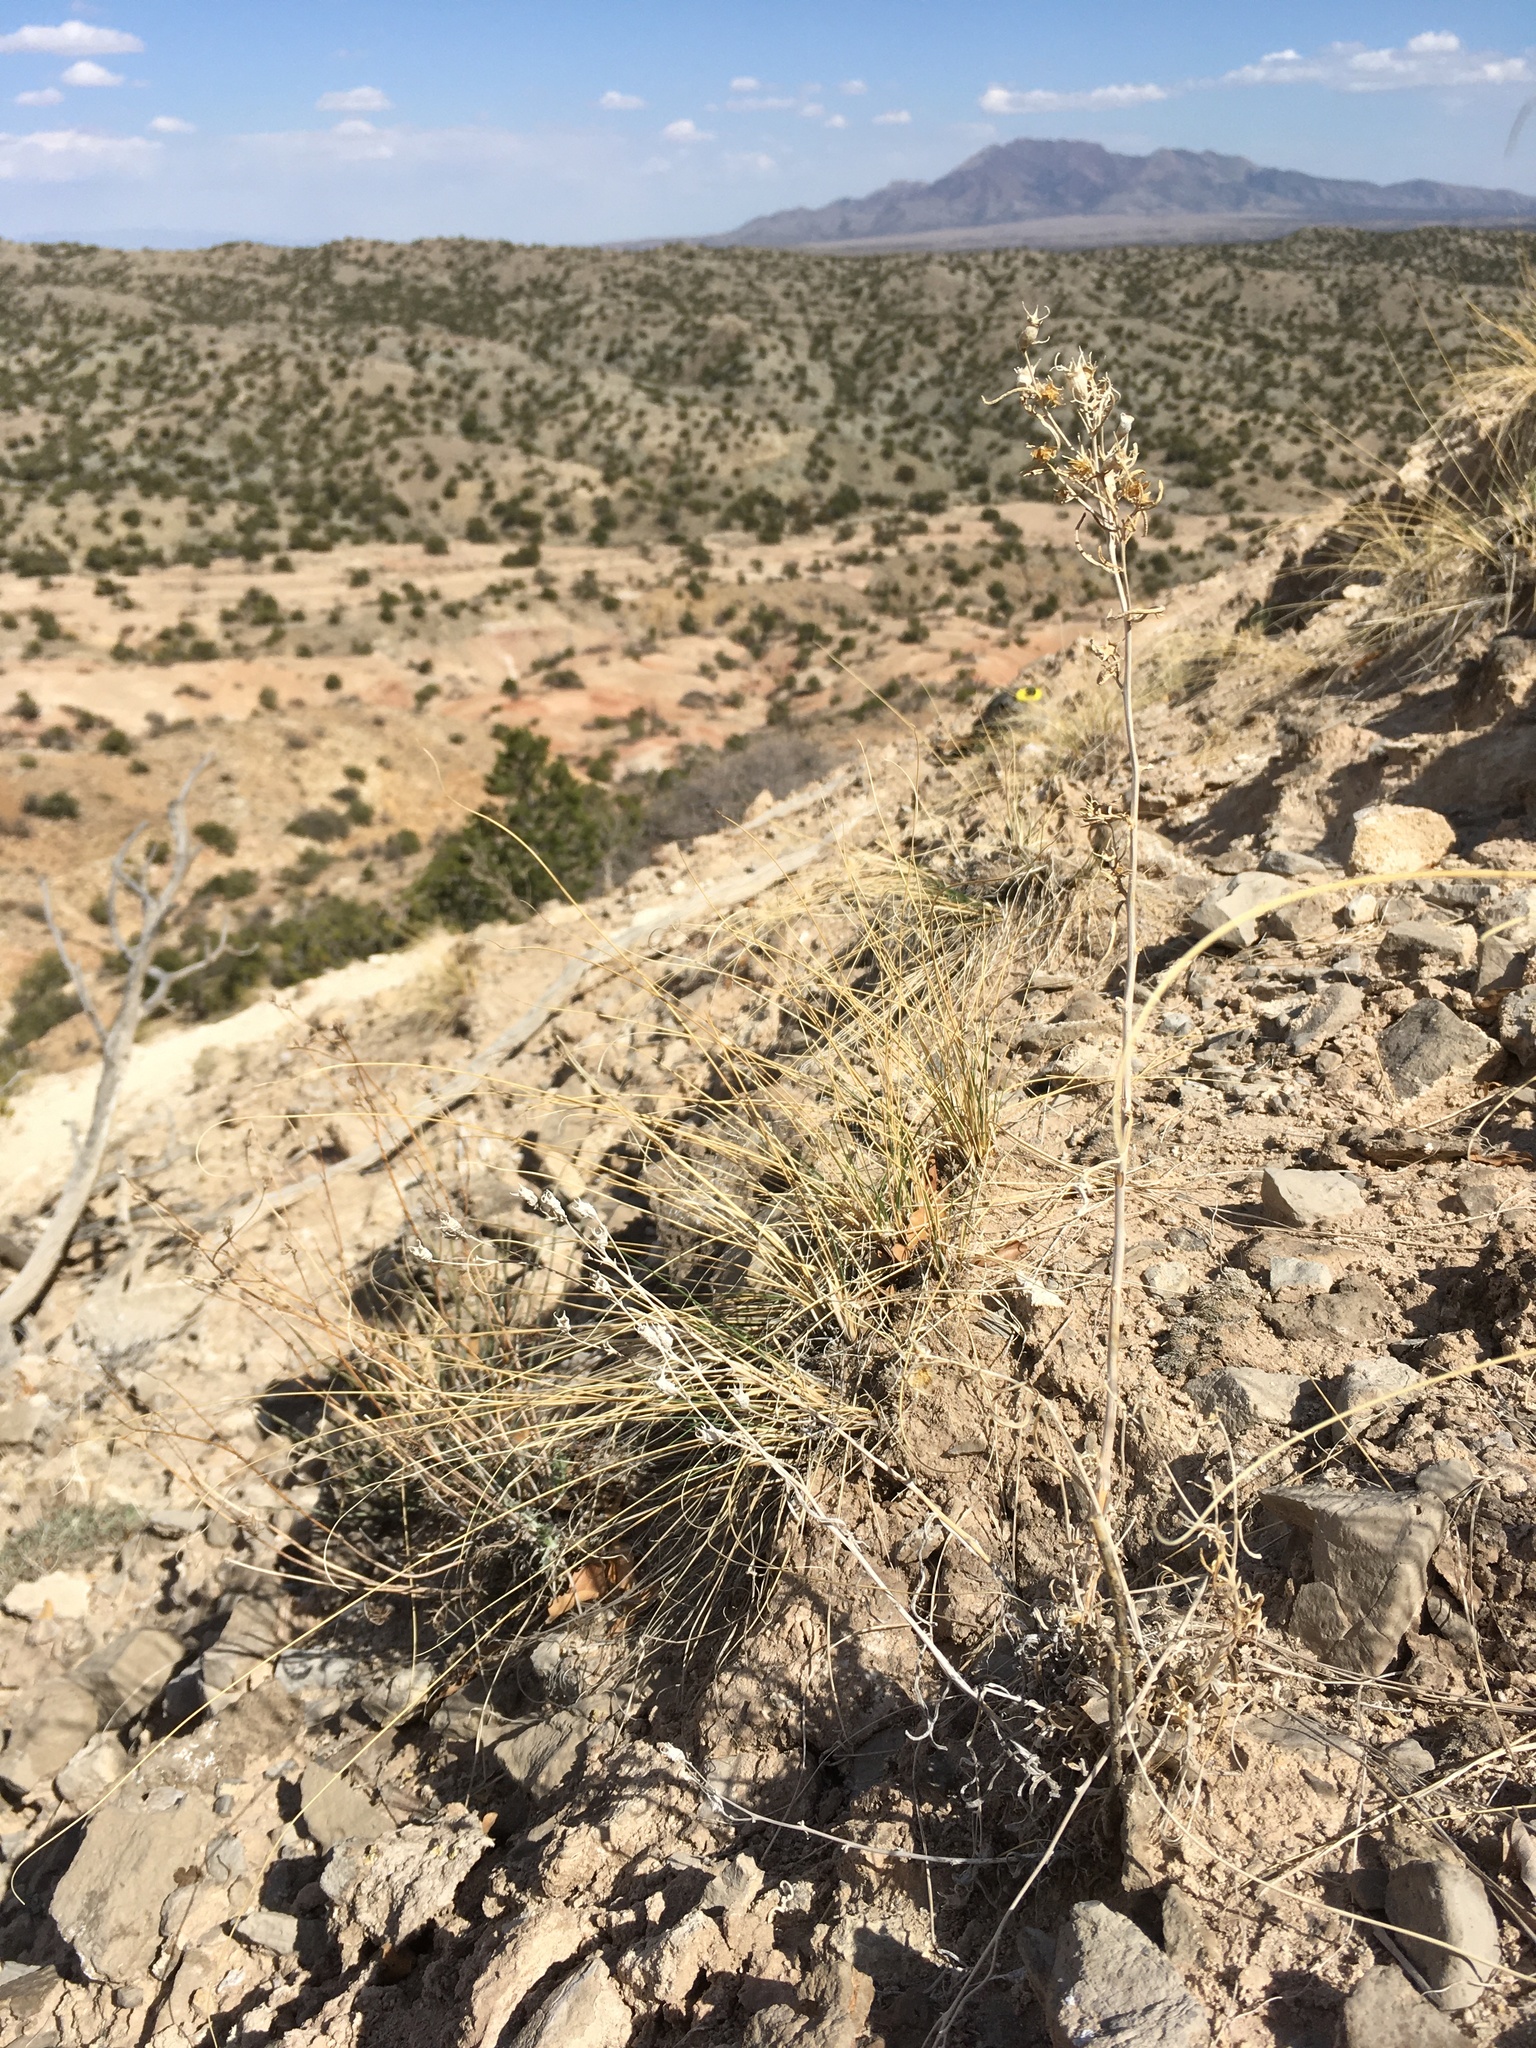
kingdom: Plantae
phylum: Tracheophyta
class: Magnoliopsida
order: Cornales
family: Loasaceae
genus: Mentzelia
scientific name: Mentzelia todiltoensis
